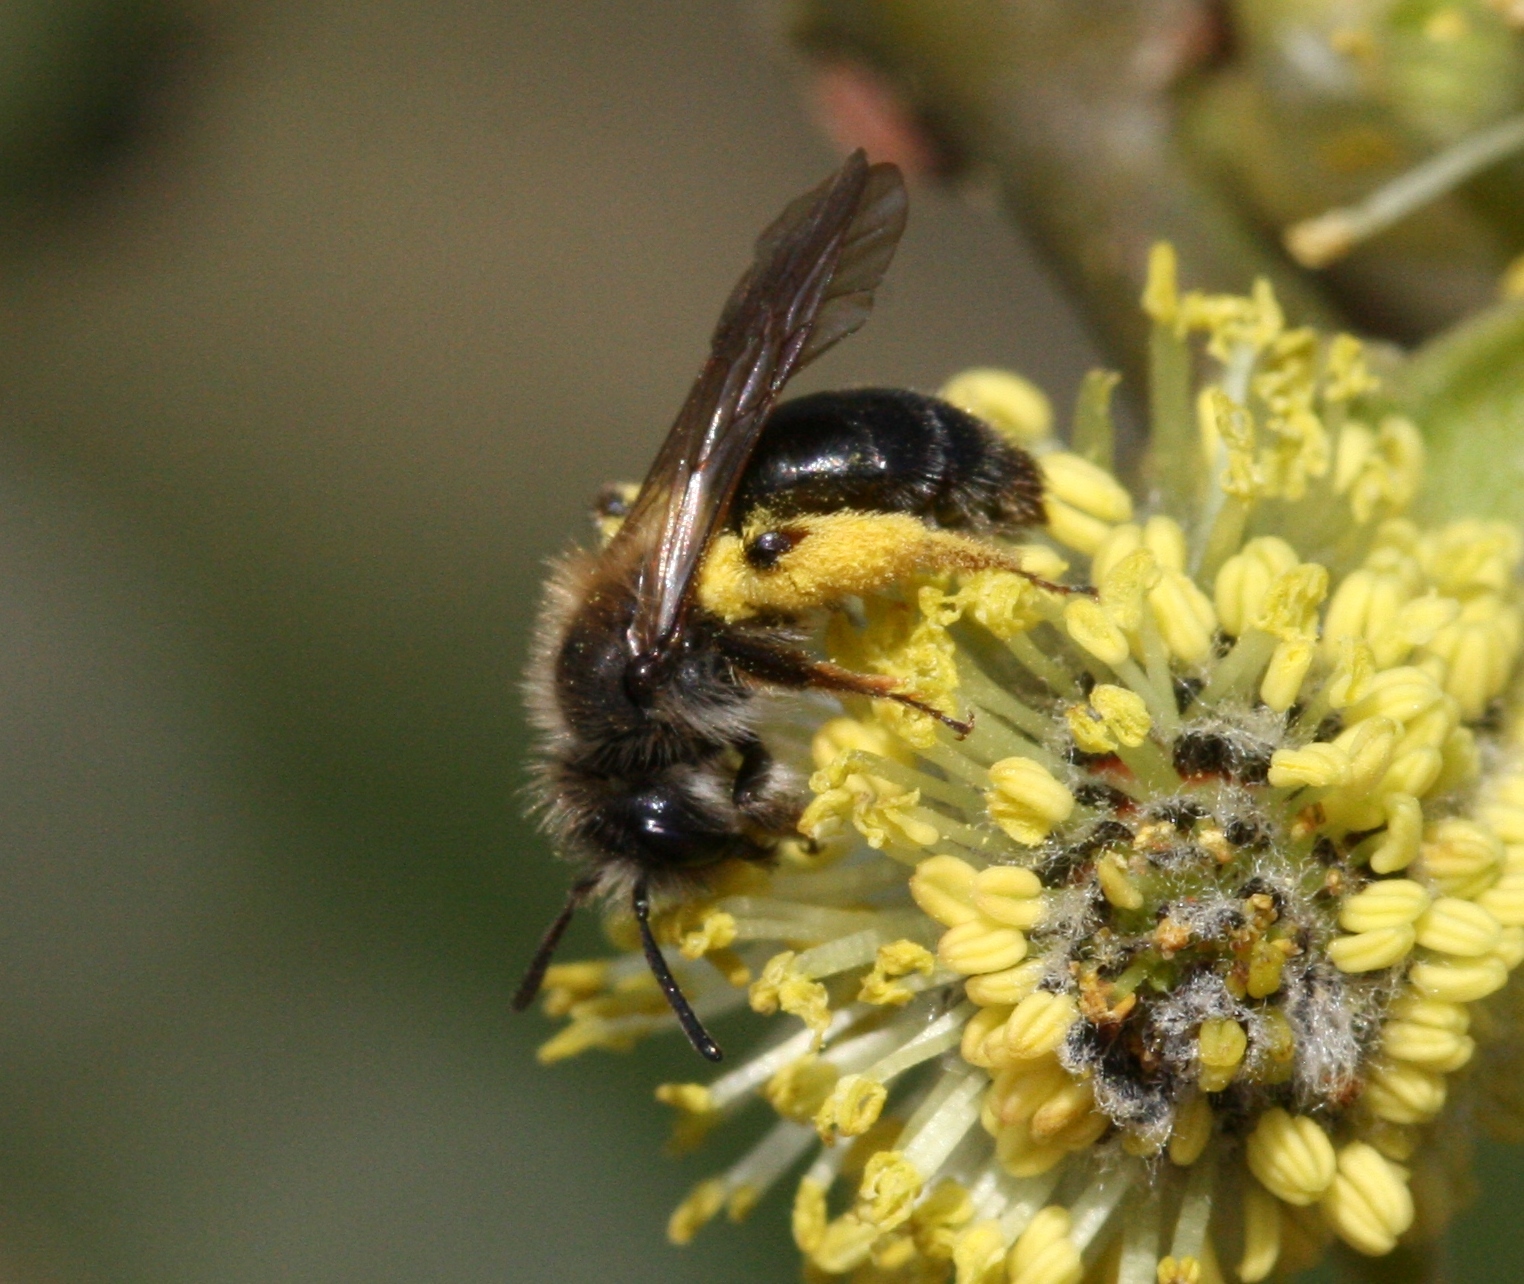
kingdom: Animalia
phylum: Arthropoda
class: Insecta
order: Hymenoptera
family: Andrenidae
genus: Andrena
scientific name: Andrena ruficrus
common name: Northern mining bee
